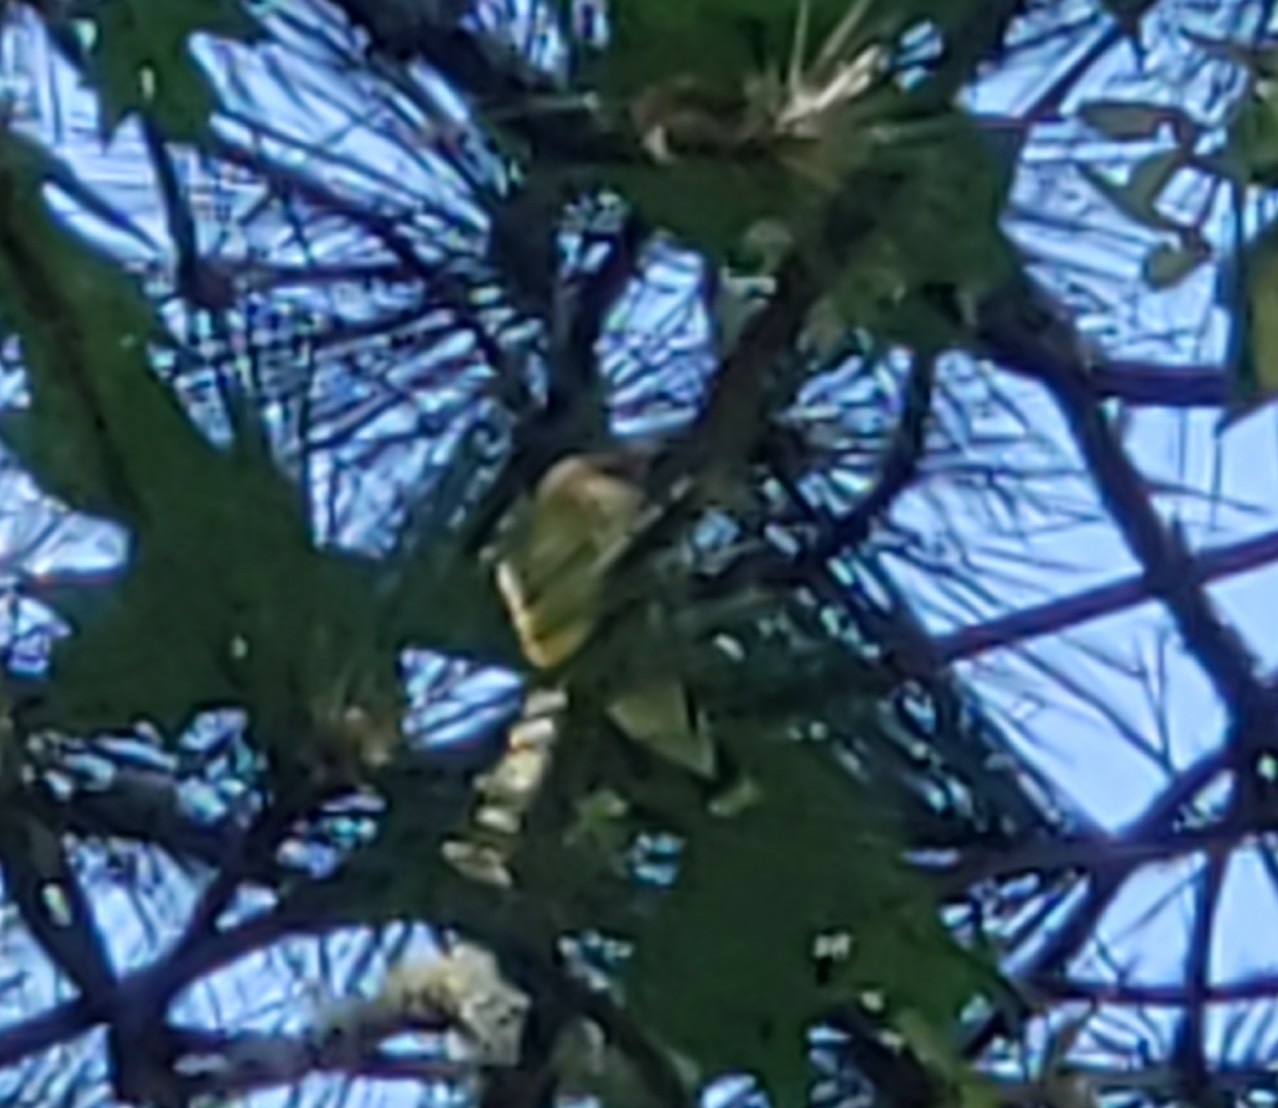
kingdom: Animalia
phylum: Chordata
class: Aves
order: Passeriformes
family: Bombycillidae
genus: Bombycilla
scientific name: Bombycilla cedrorum
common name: Cedar waxwing
